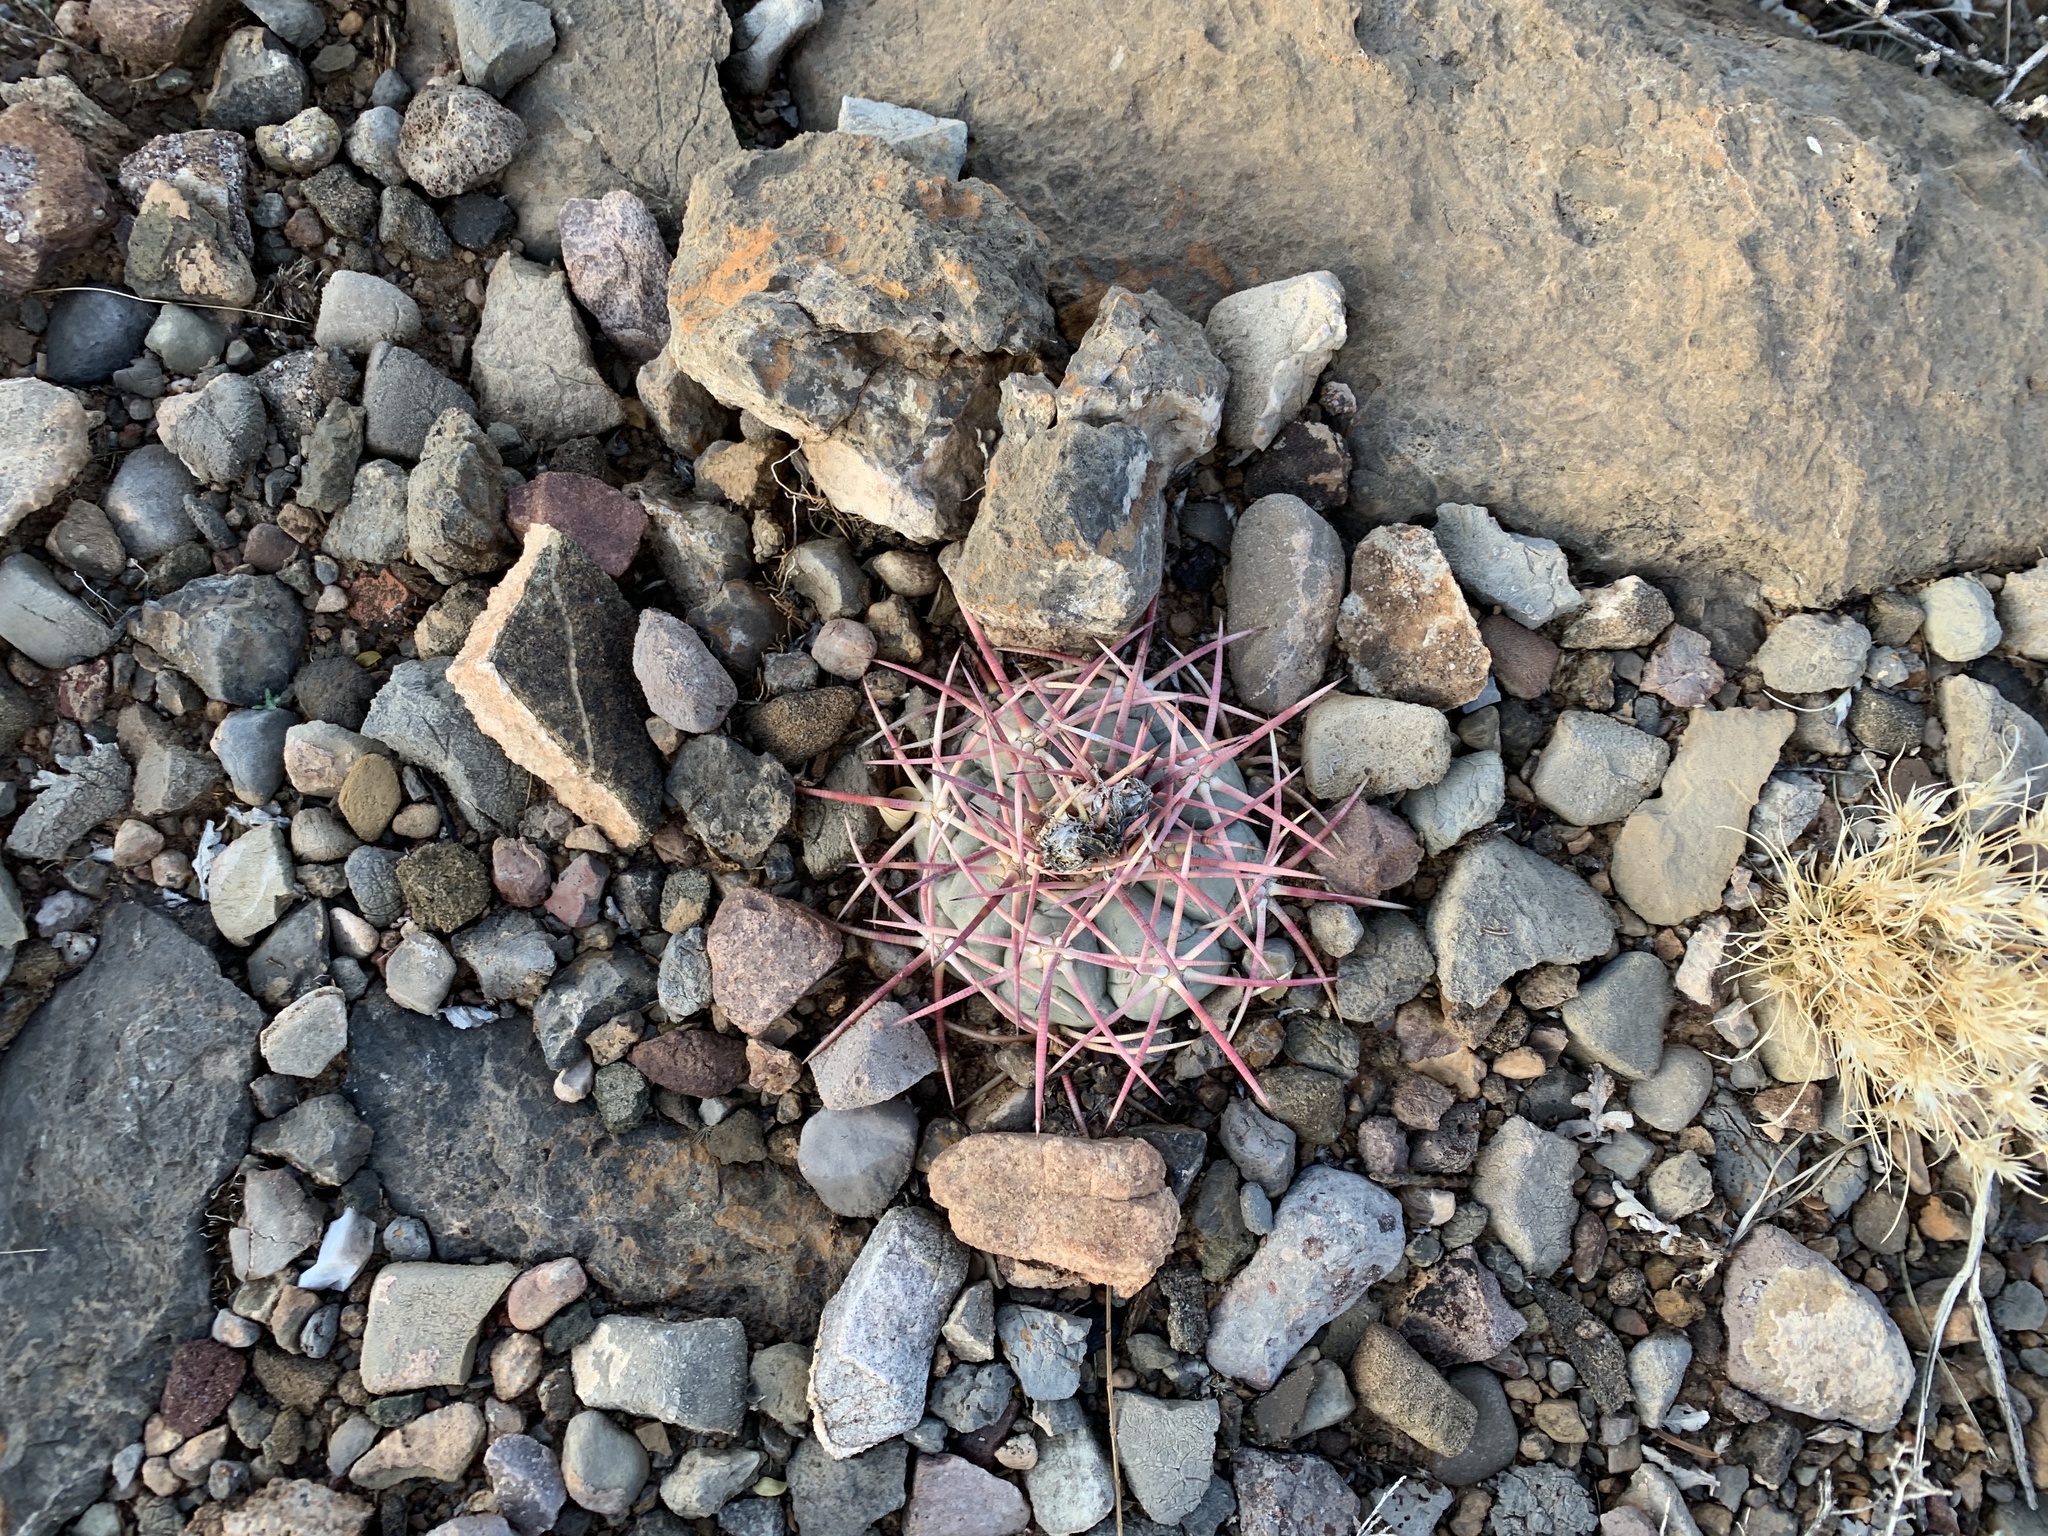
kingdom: Plantae
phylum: Tracheophyta
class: Magnoliopsida
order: Caryophyllales
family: Cactaceae
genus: Echinocactus
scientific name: Echinocactus horizonthalonius
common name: Devilshead
